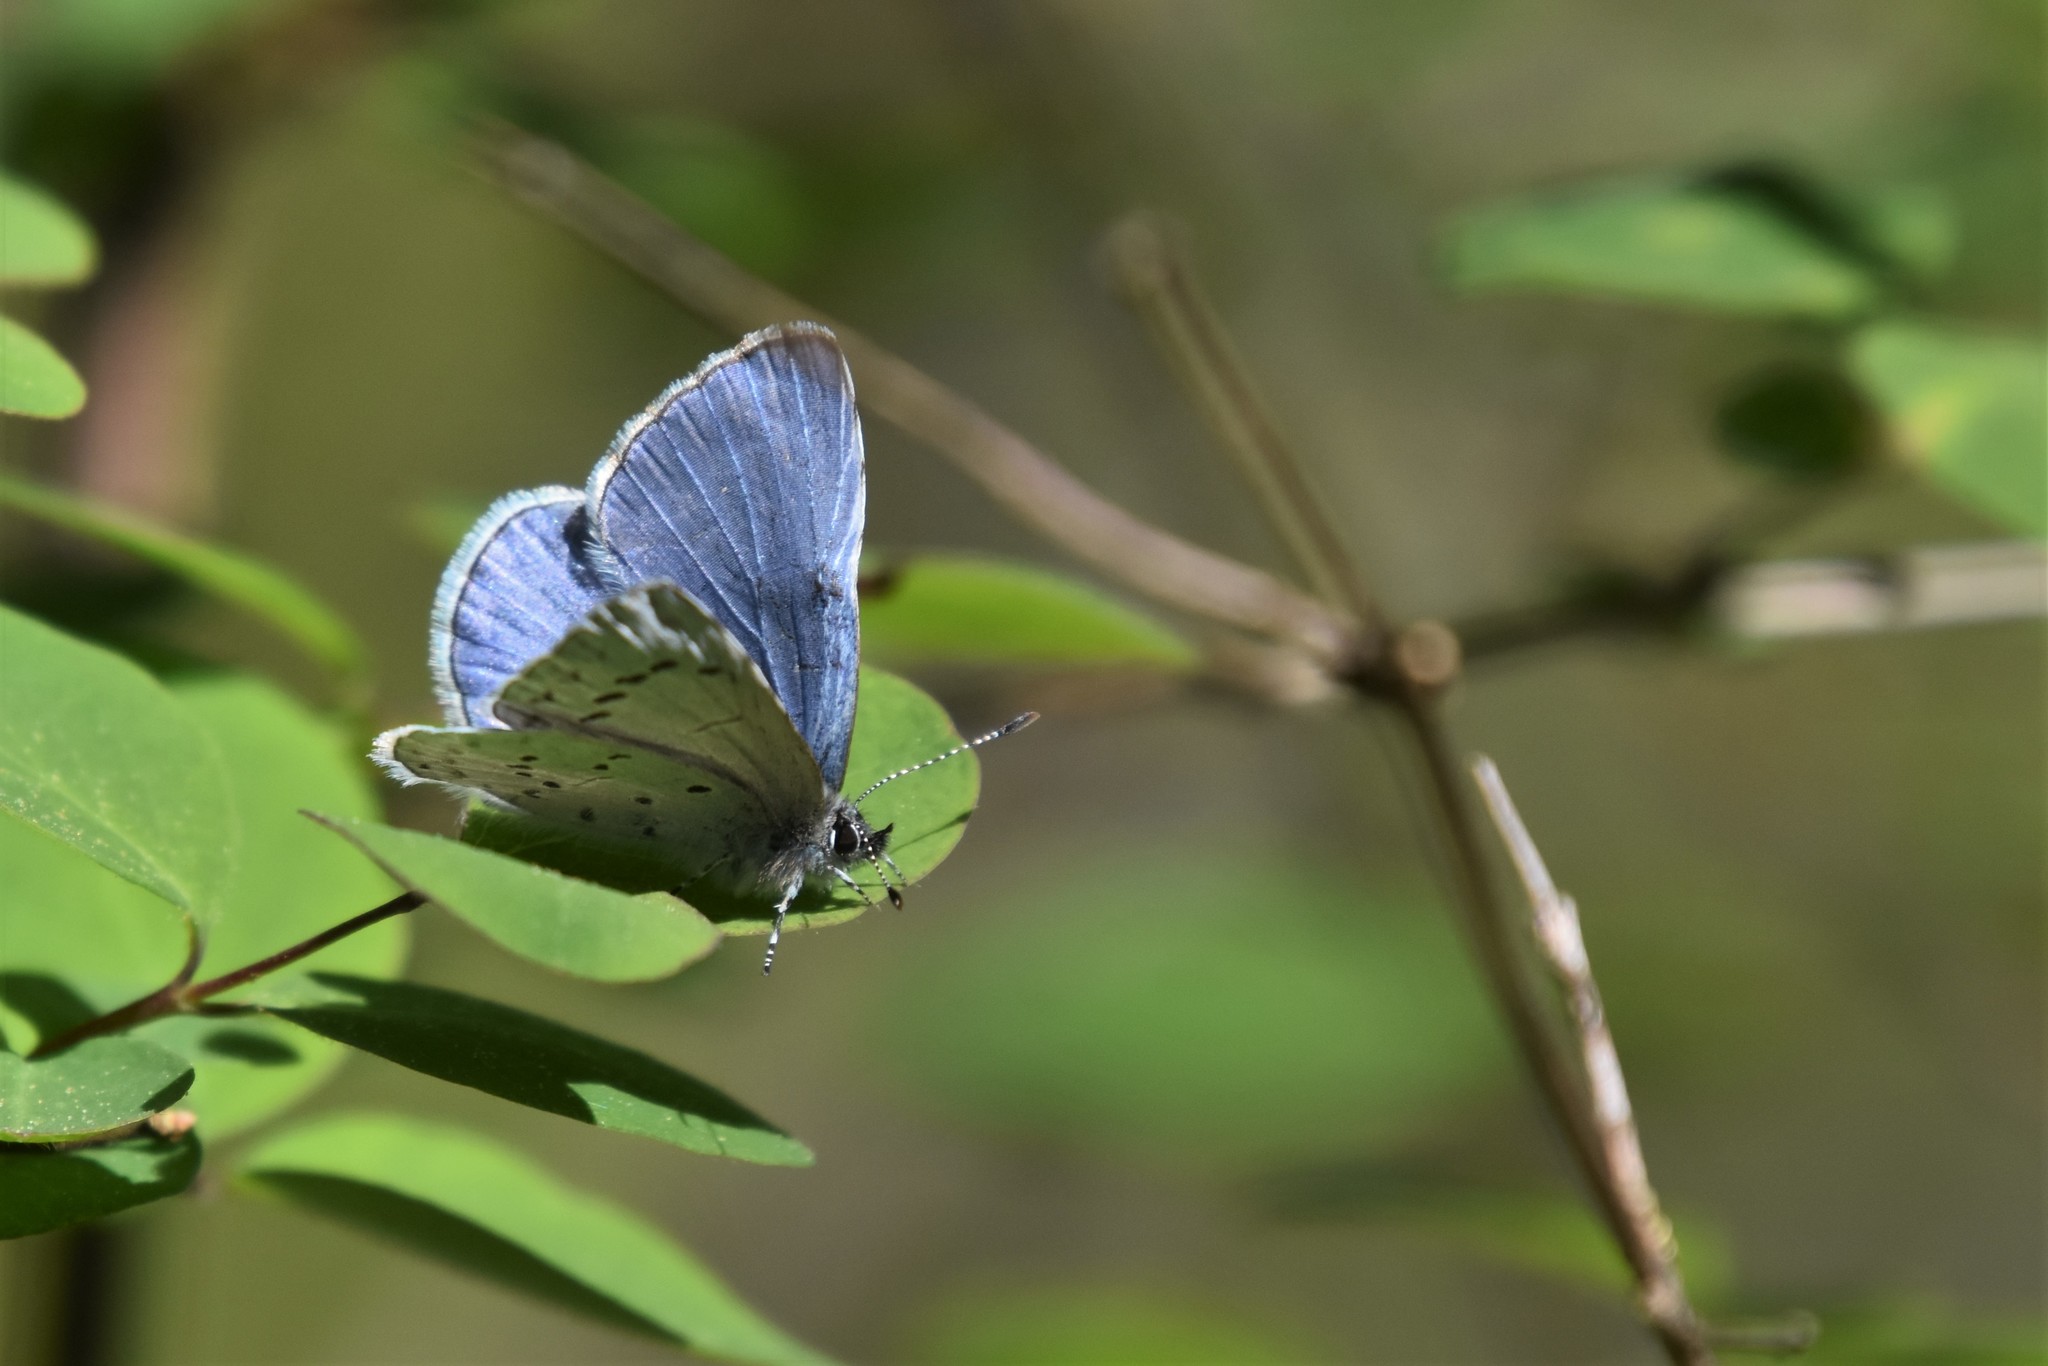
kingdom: Animalia
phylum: Arthropoda
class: Insecta
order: Lepidoptera
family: Lycaenidae
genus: Celastrina
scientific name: Celastrina ladon
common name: Spring azure
